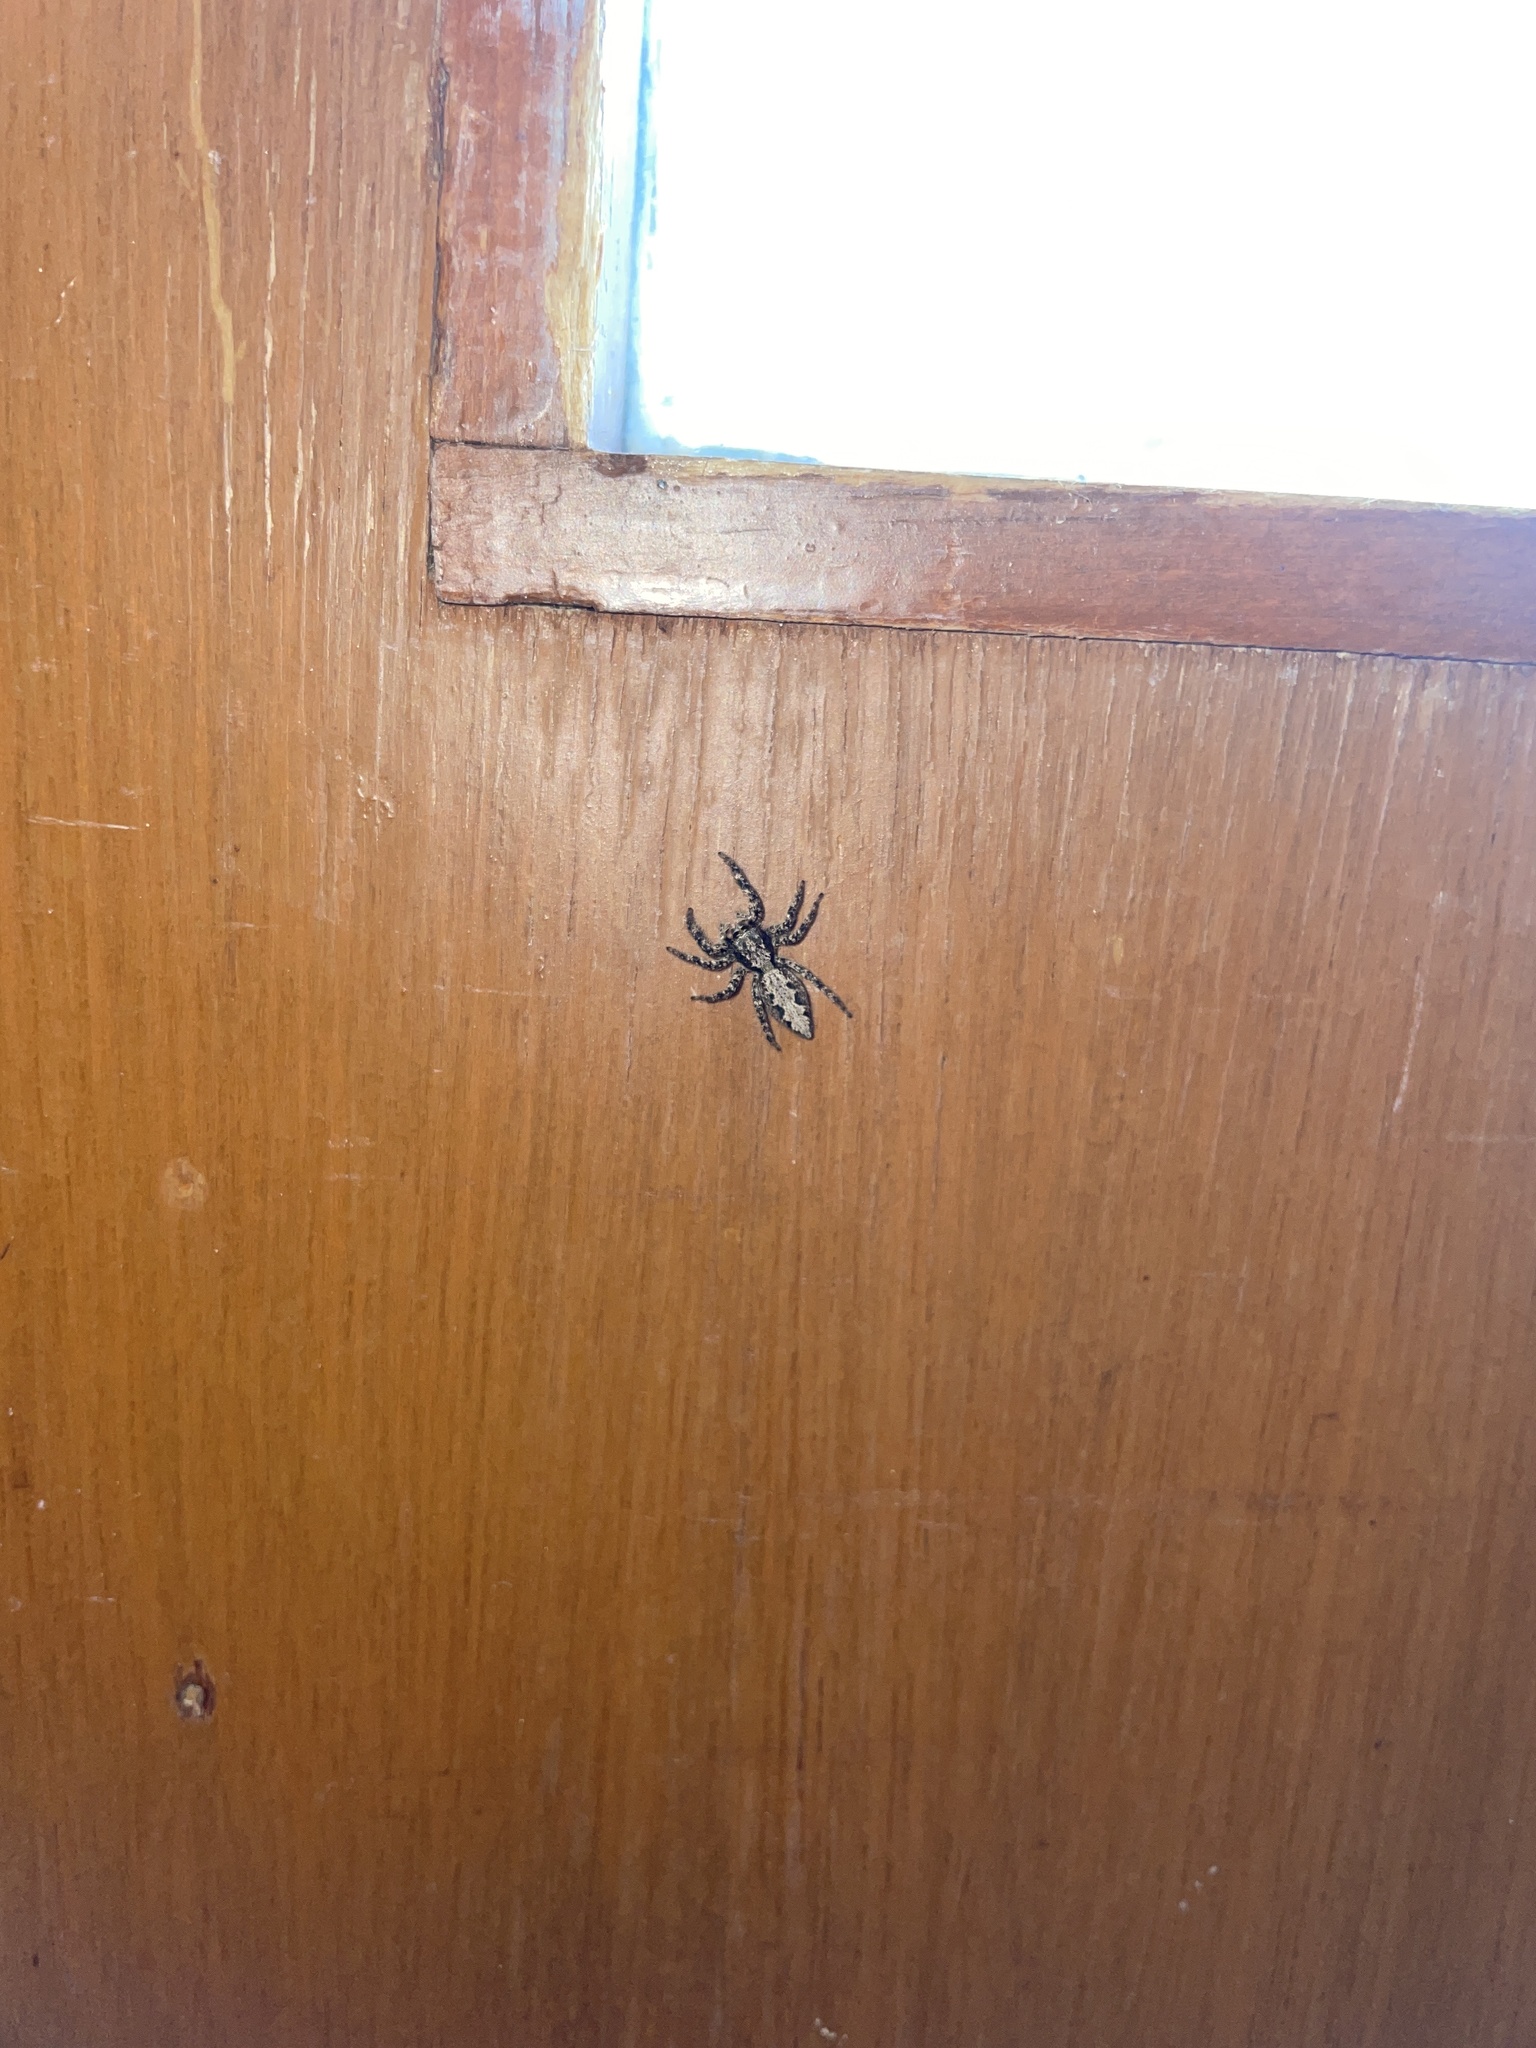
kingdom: Animalia
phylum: Arthropoda
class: Arachnida
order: Araneae
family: Salticidae
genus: Platycryptus
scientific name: Platycryptus californicus
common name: Jumping spiders
